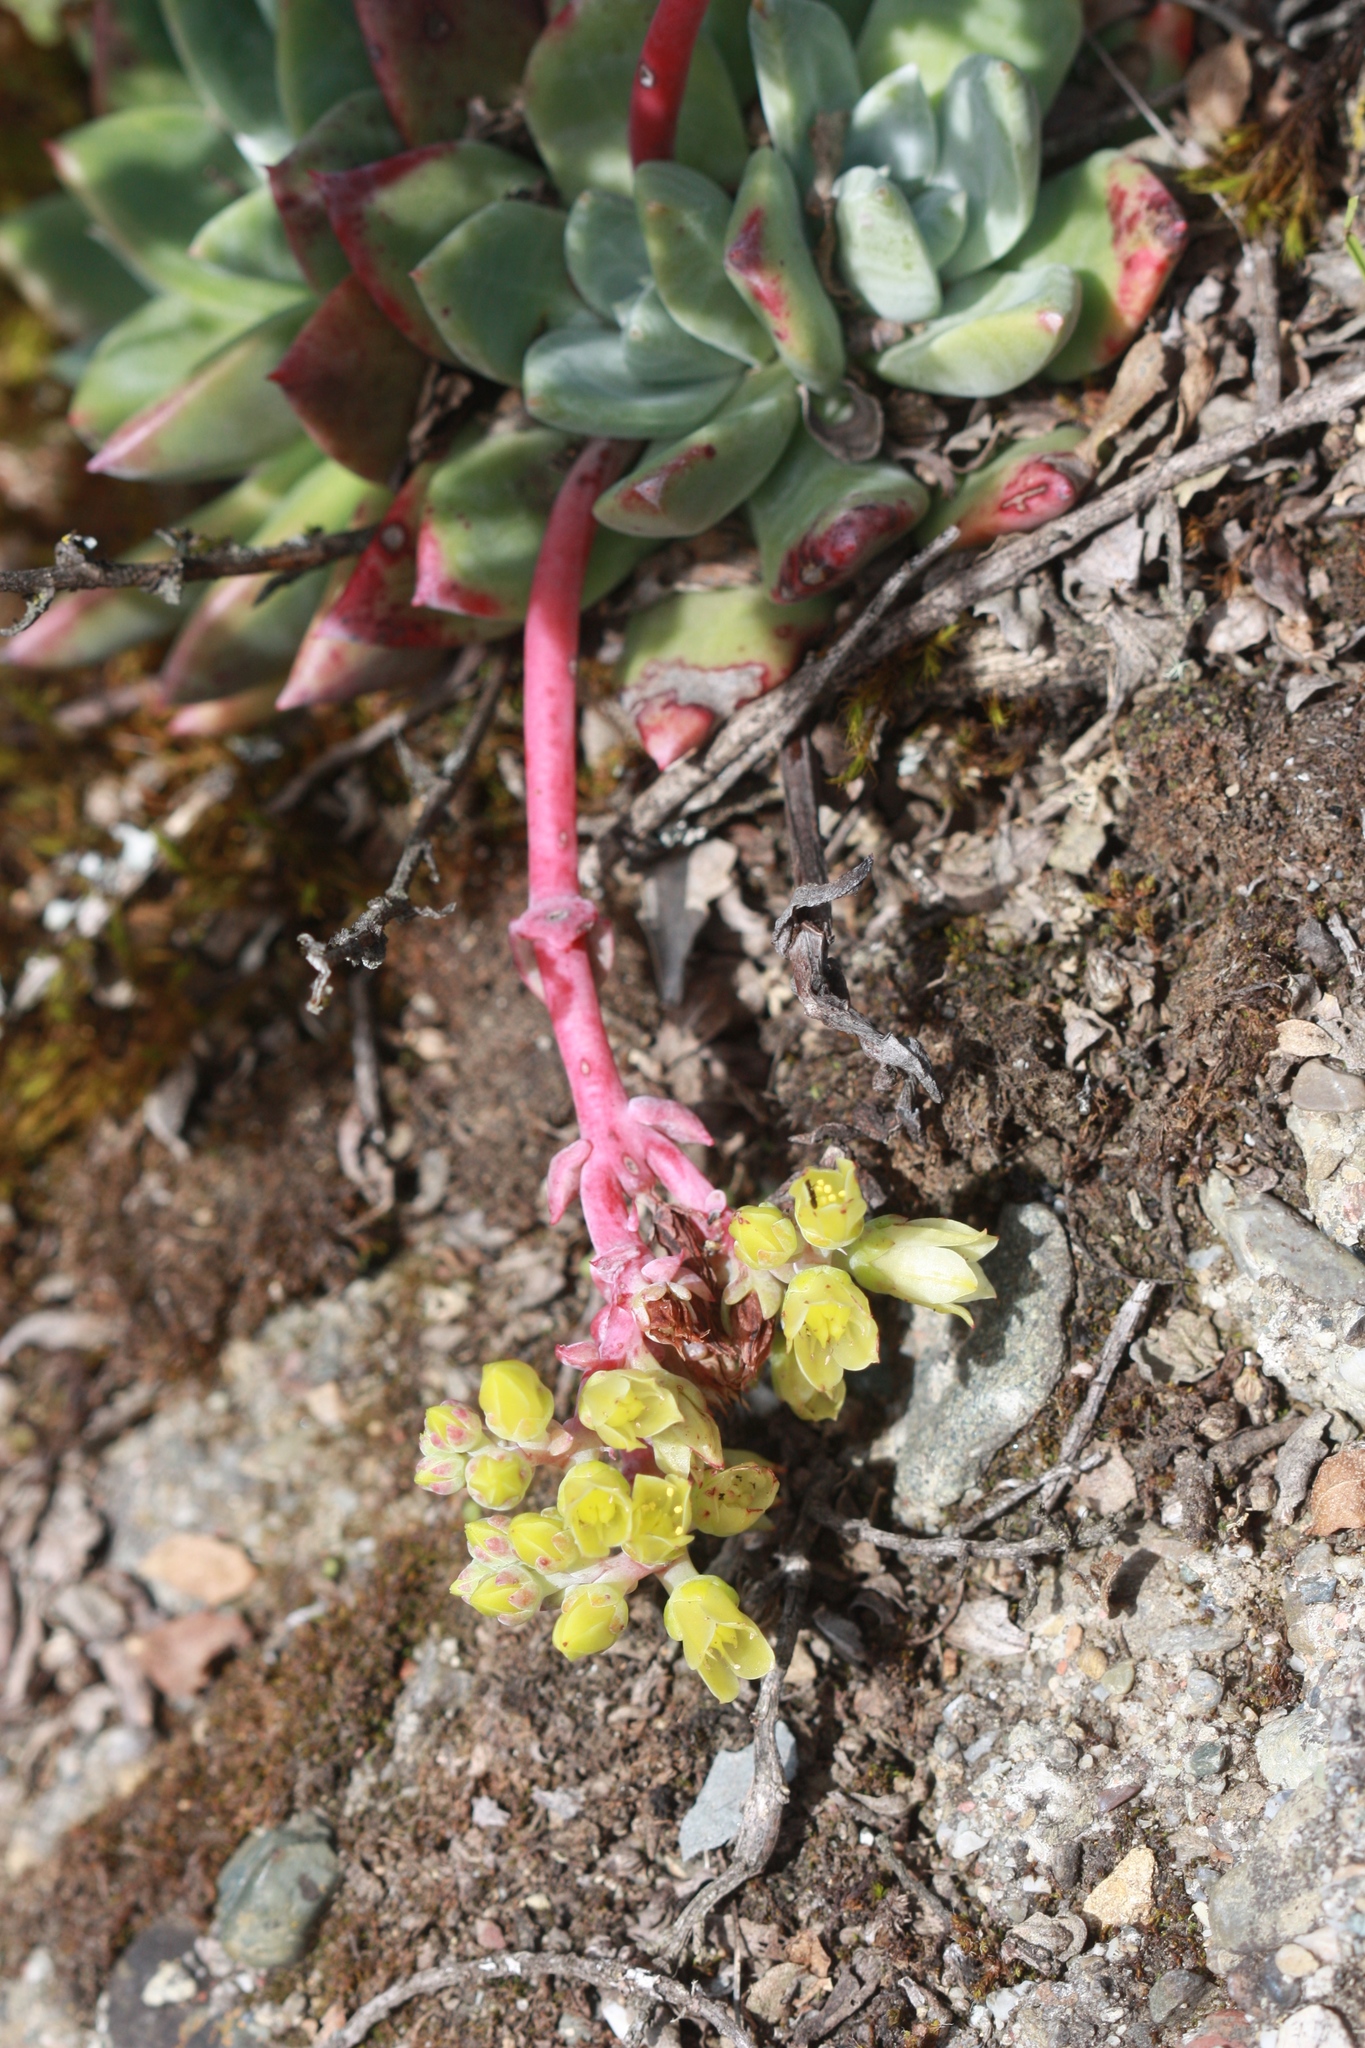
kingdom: Plantae
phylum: Tracheophyta
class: Magnoliopsida
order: Saxifragales
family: Crassulaceae
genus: Dudleya
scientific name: Dudleya farinosa
